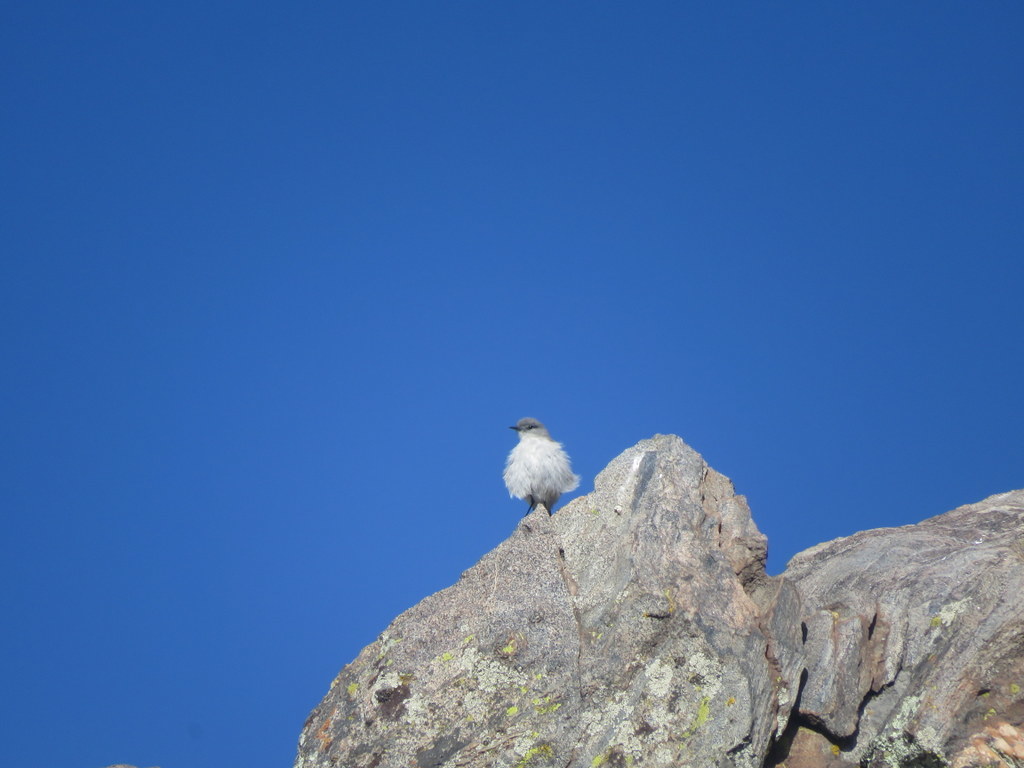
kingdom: Animalia
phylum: Chordata
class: Aves
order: Passeriformes
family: Tyrannidae
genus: Muscisaxicola
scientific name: Muscisaxicola juninensis
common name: Puna ground tyrant
